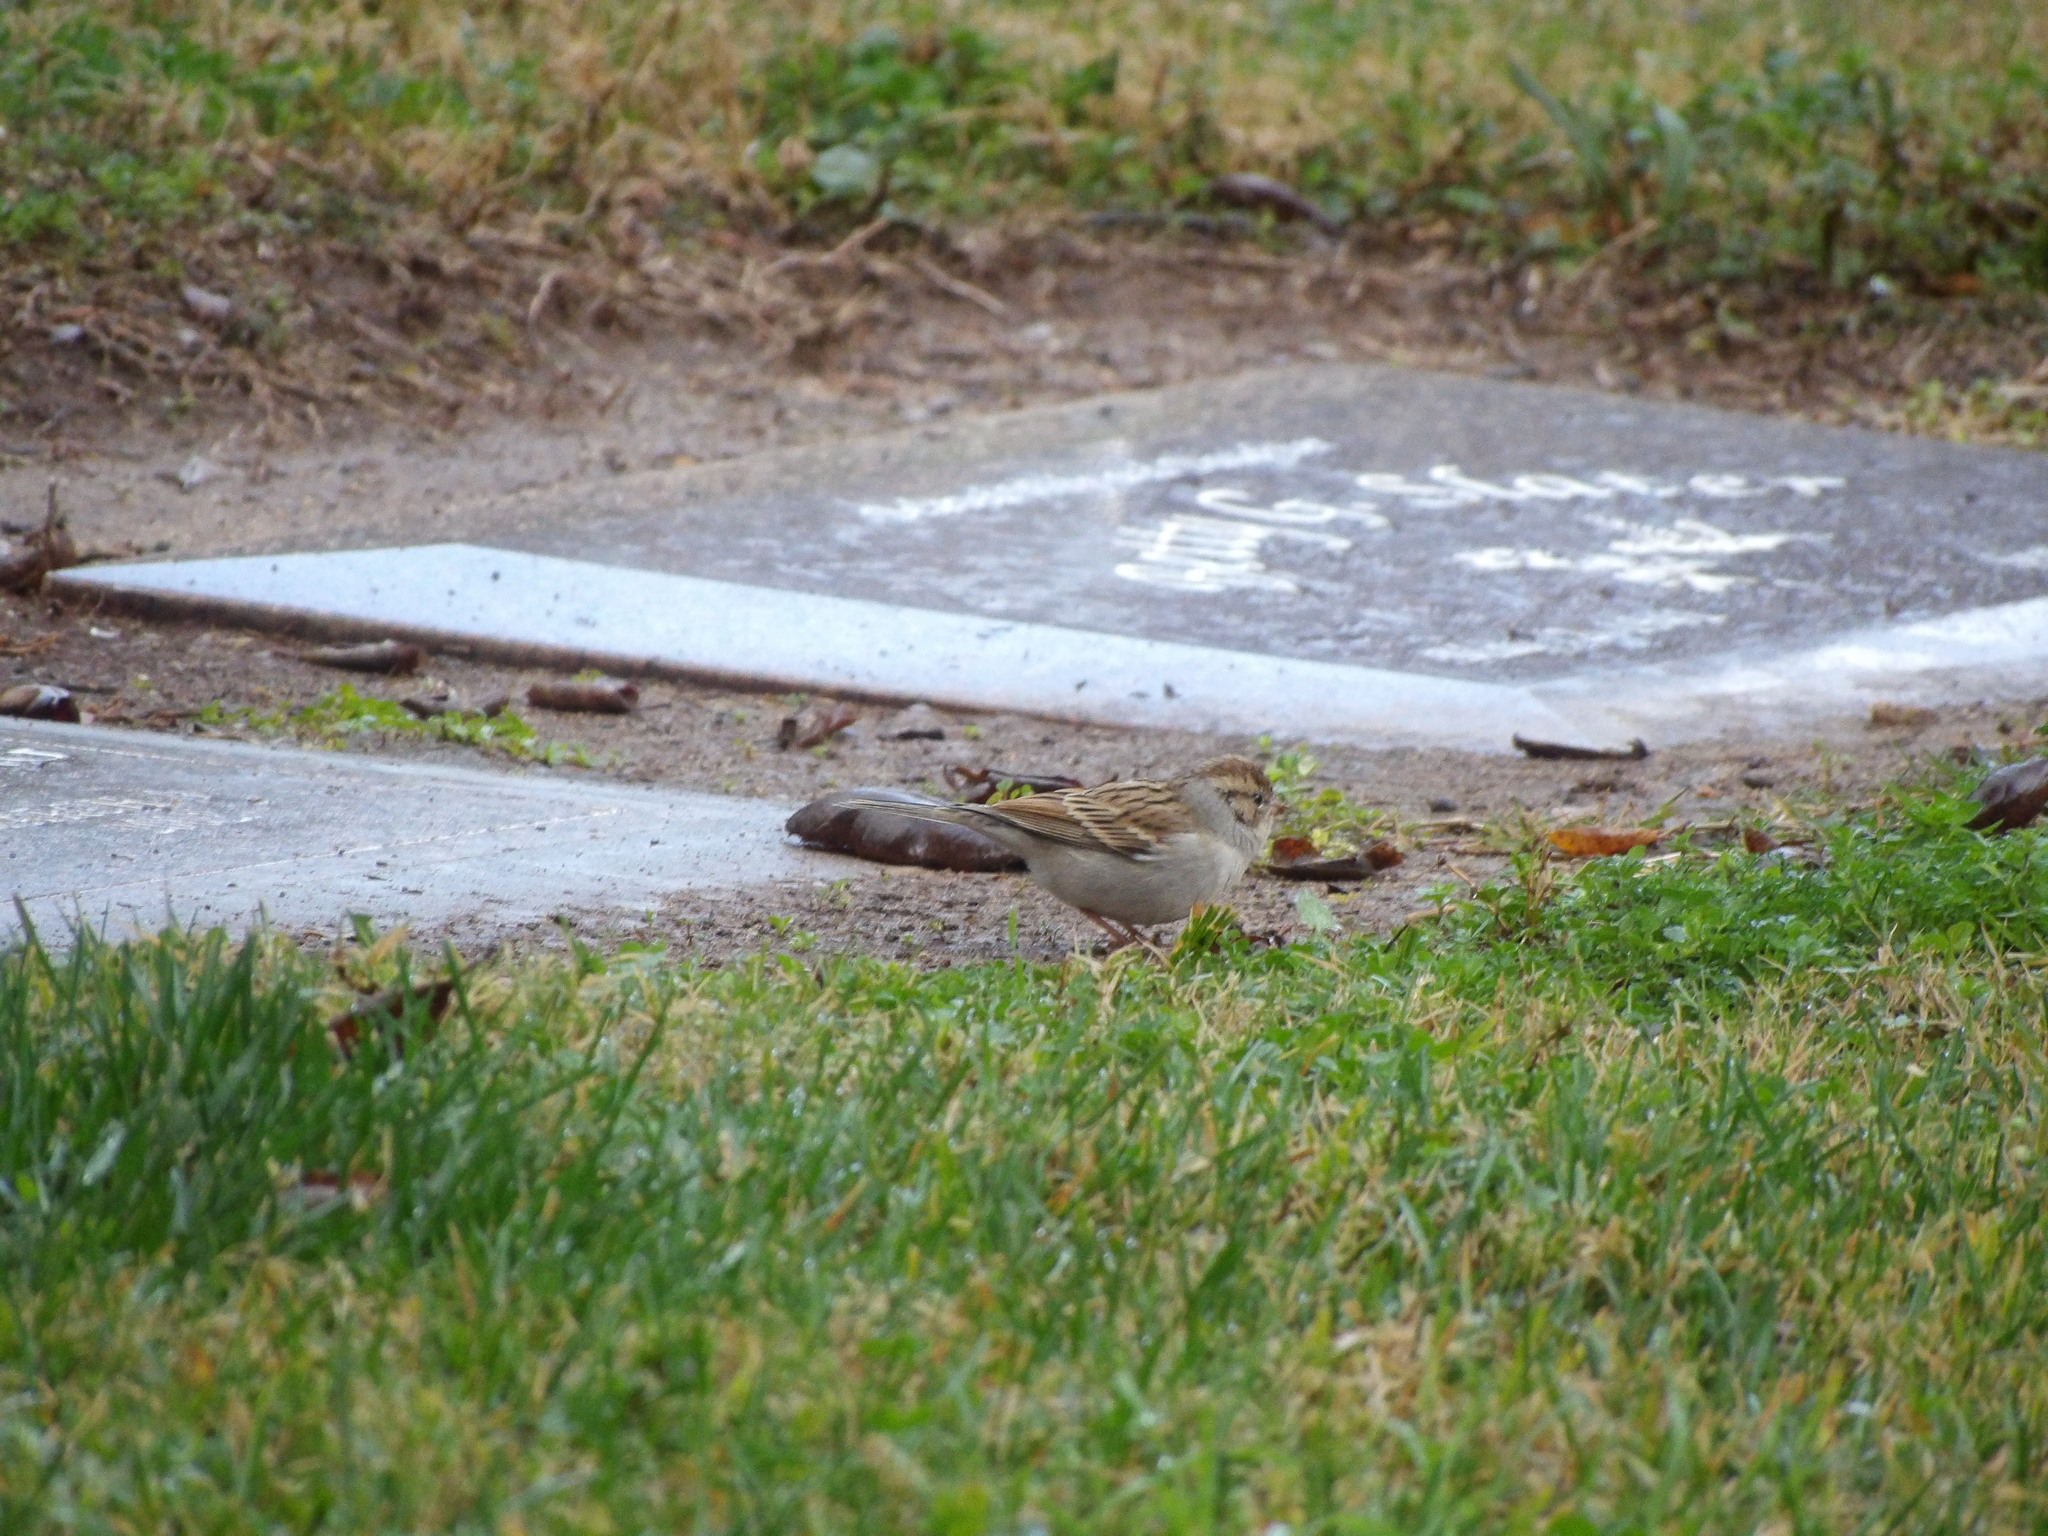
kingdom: Animalia
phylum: Chordata
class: Aves
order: Passeriformes
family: Passerellidae
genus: Spizella
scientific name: Spizella passerina
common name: Chipping sparrow
